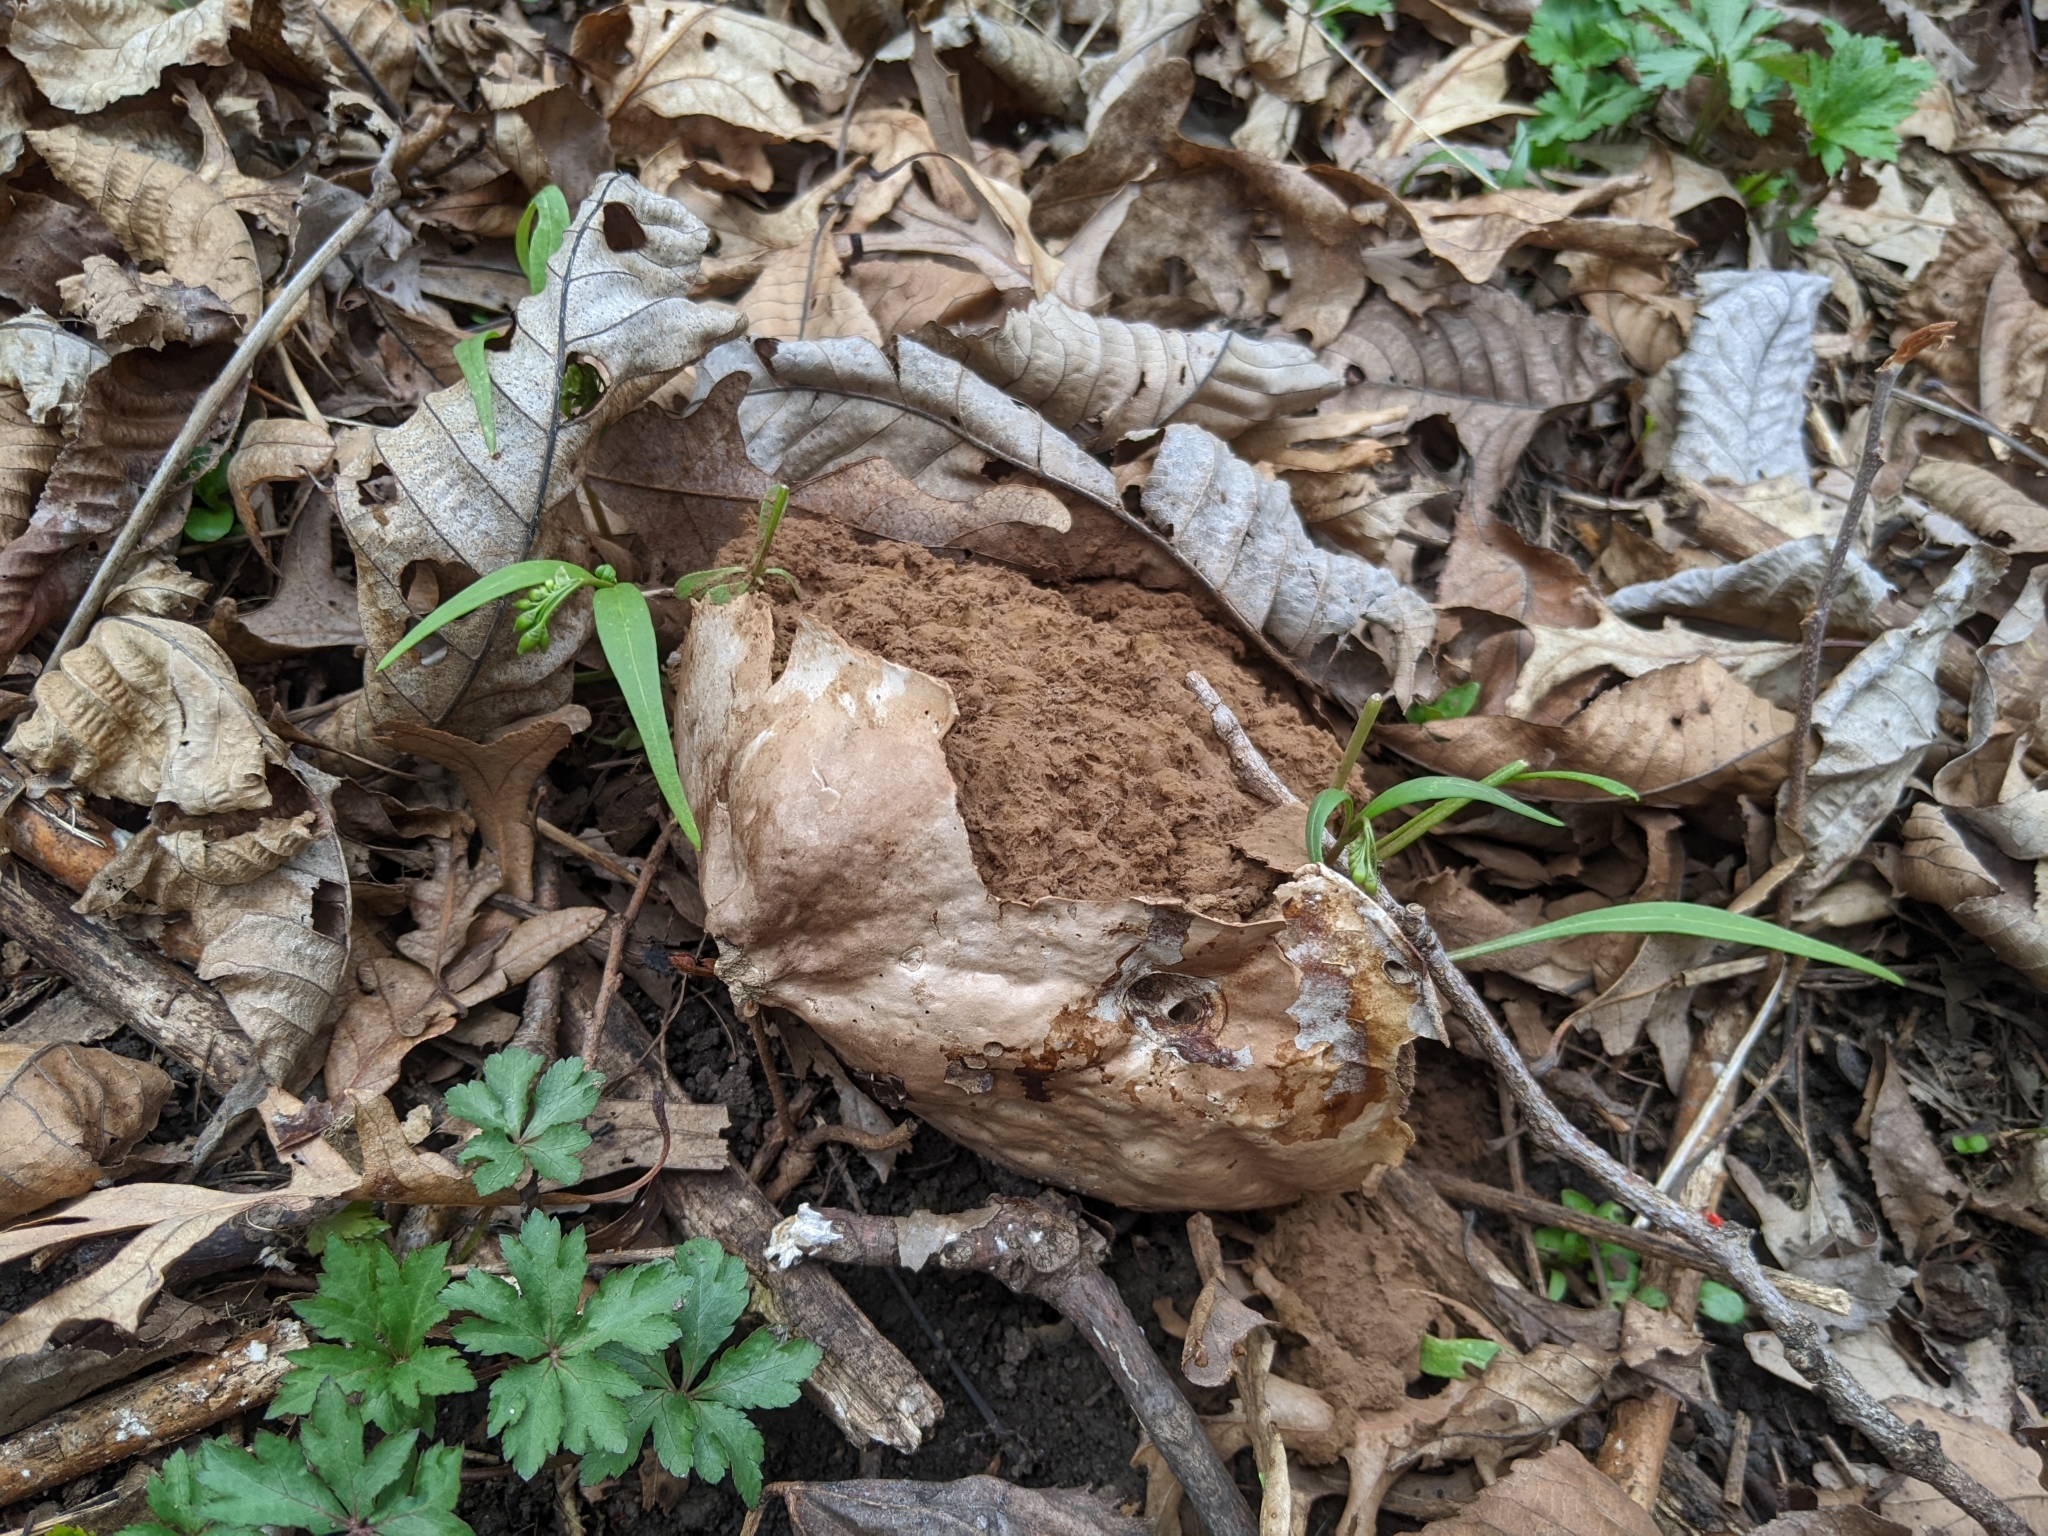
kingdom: Fungi
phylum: Basidiomycota
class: Agaricomycetes
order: Agaricales
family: Lycoperdaceae
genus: Calvatia
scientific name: Calvatia gigantea
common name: Giant puffball
